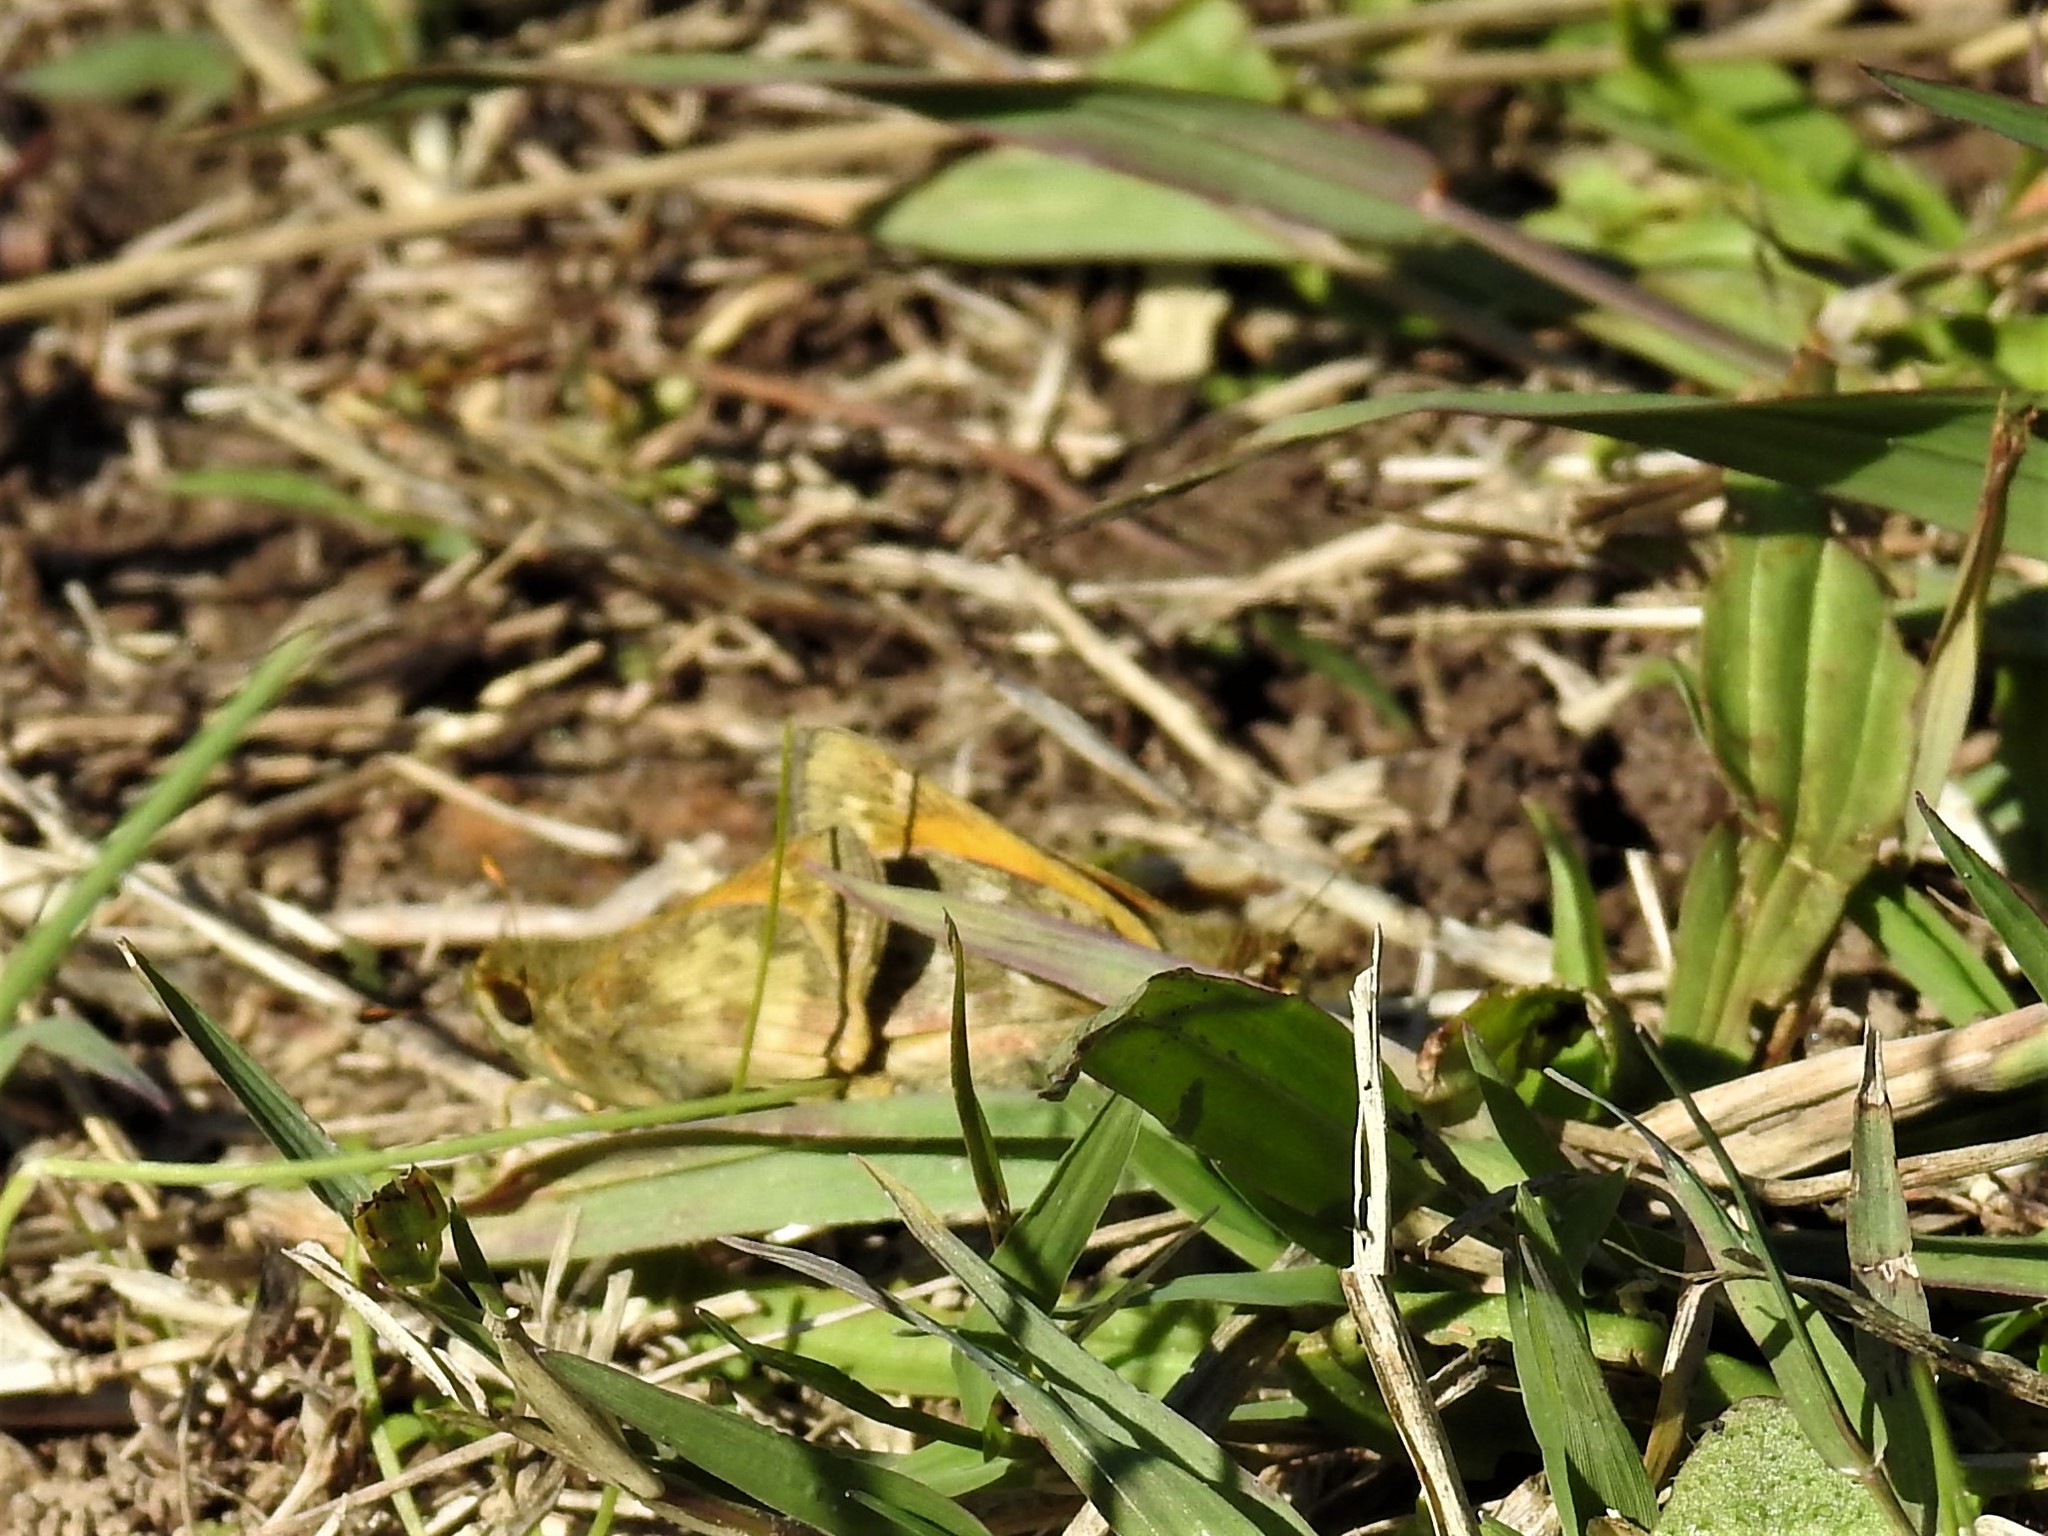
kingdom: Animalia
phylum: Arthropoda
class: Insecta
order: Lepidoptera
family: Hesperiidae
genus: Atalopedes
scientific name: Atalopedes
